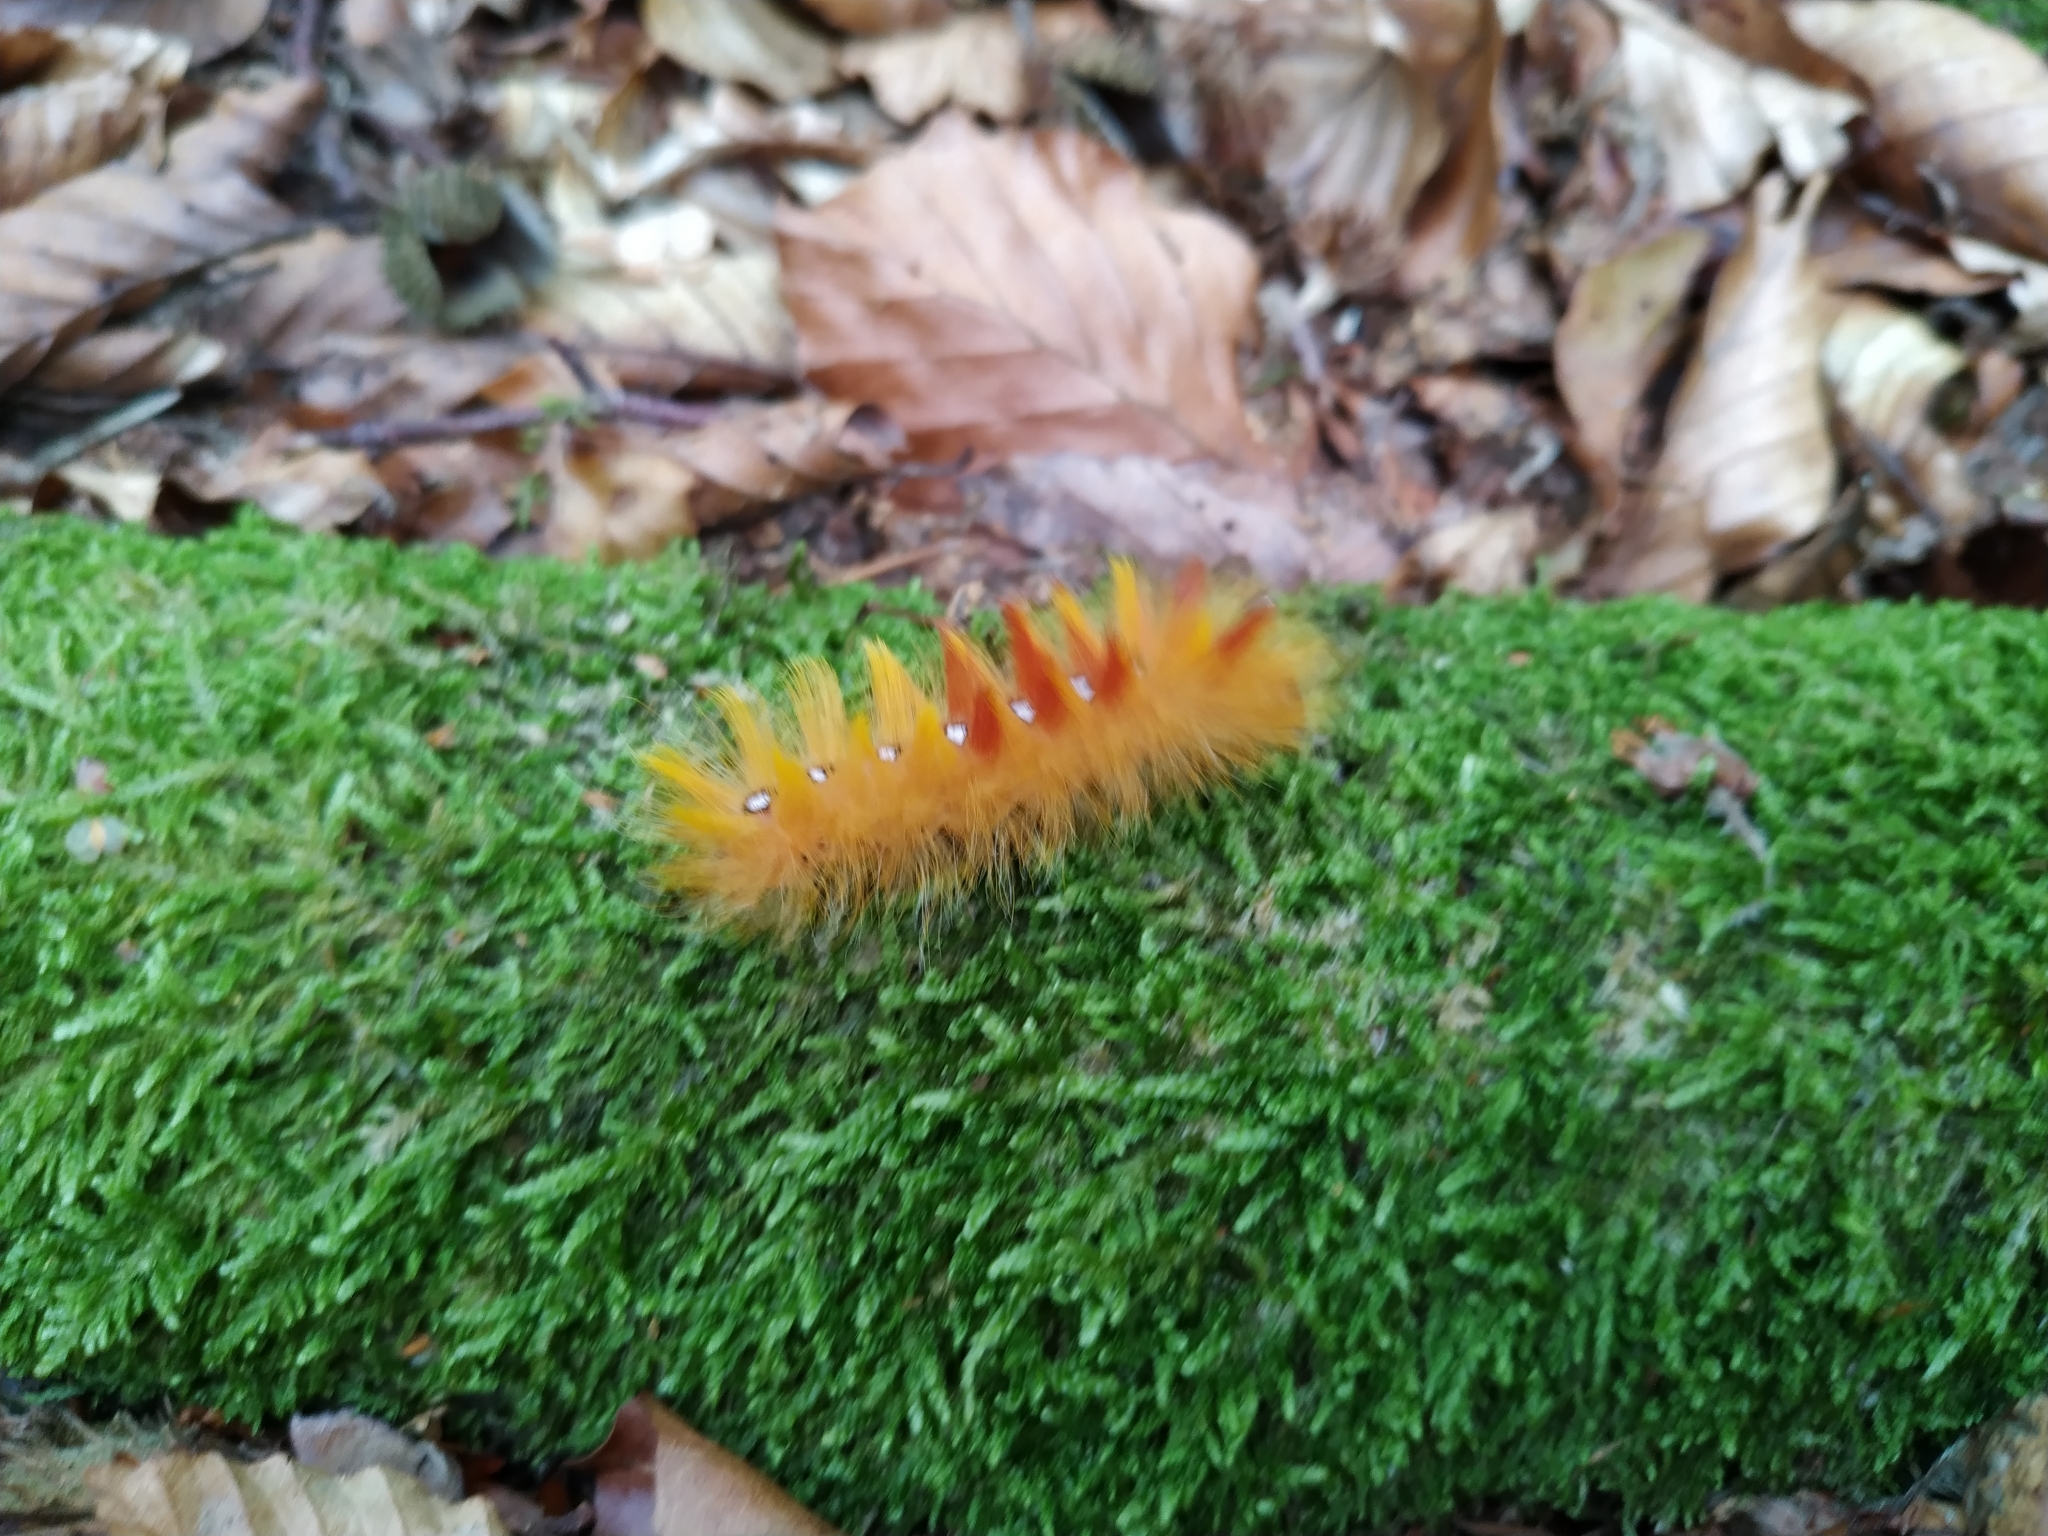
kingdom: Animalia
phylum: Arthropoda
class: Insecta
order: Lepidoptera
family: Noctuidae
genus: Acronicta
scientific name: Acronicta aceris
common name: Sycamore
